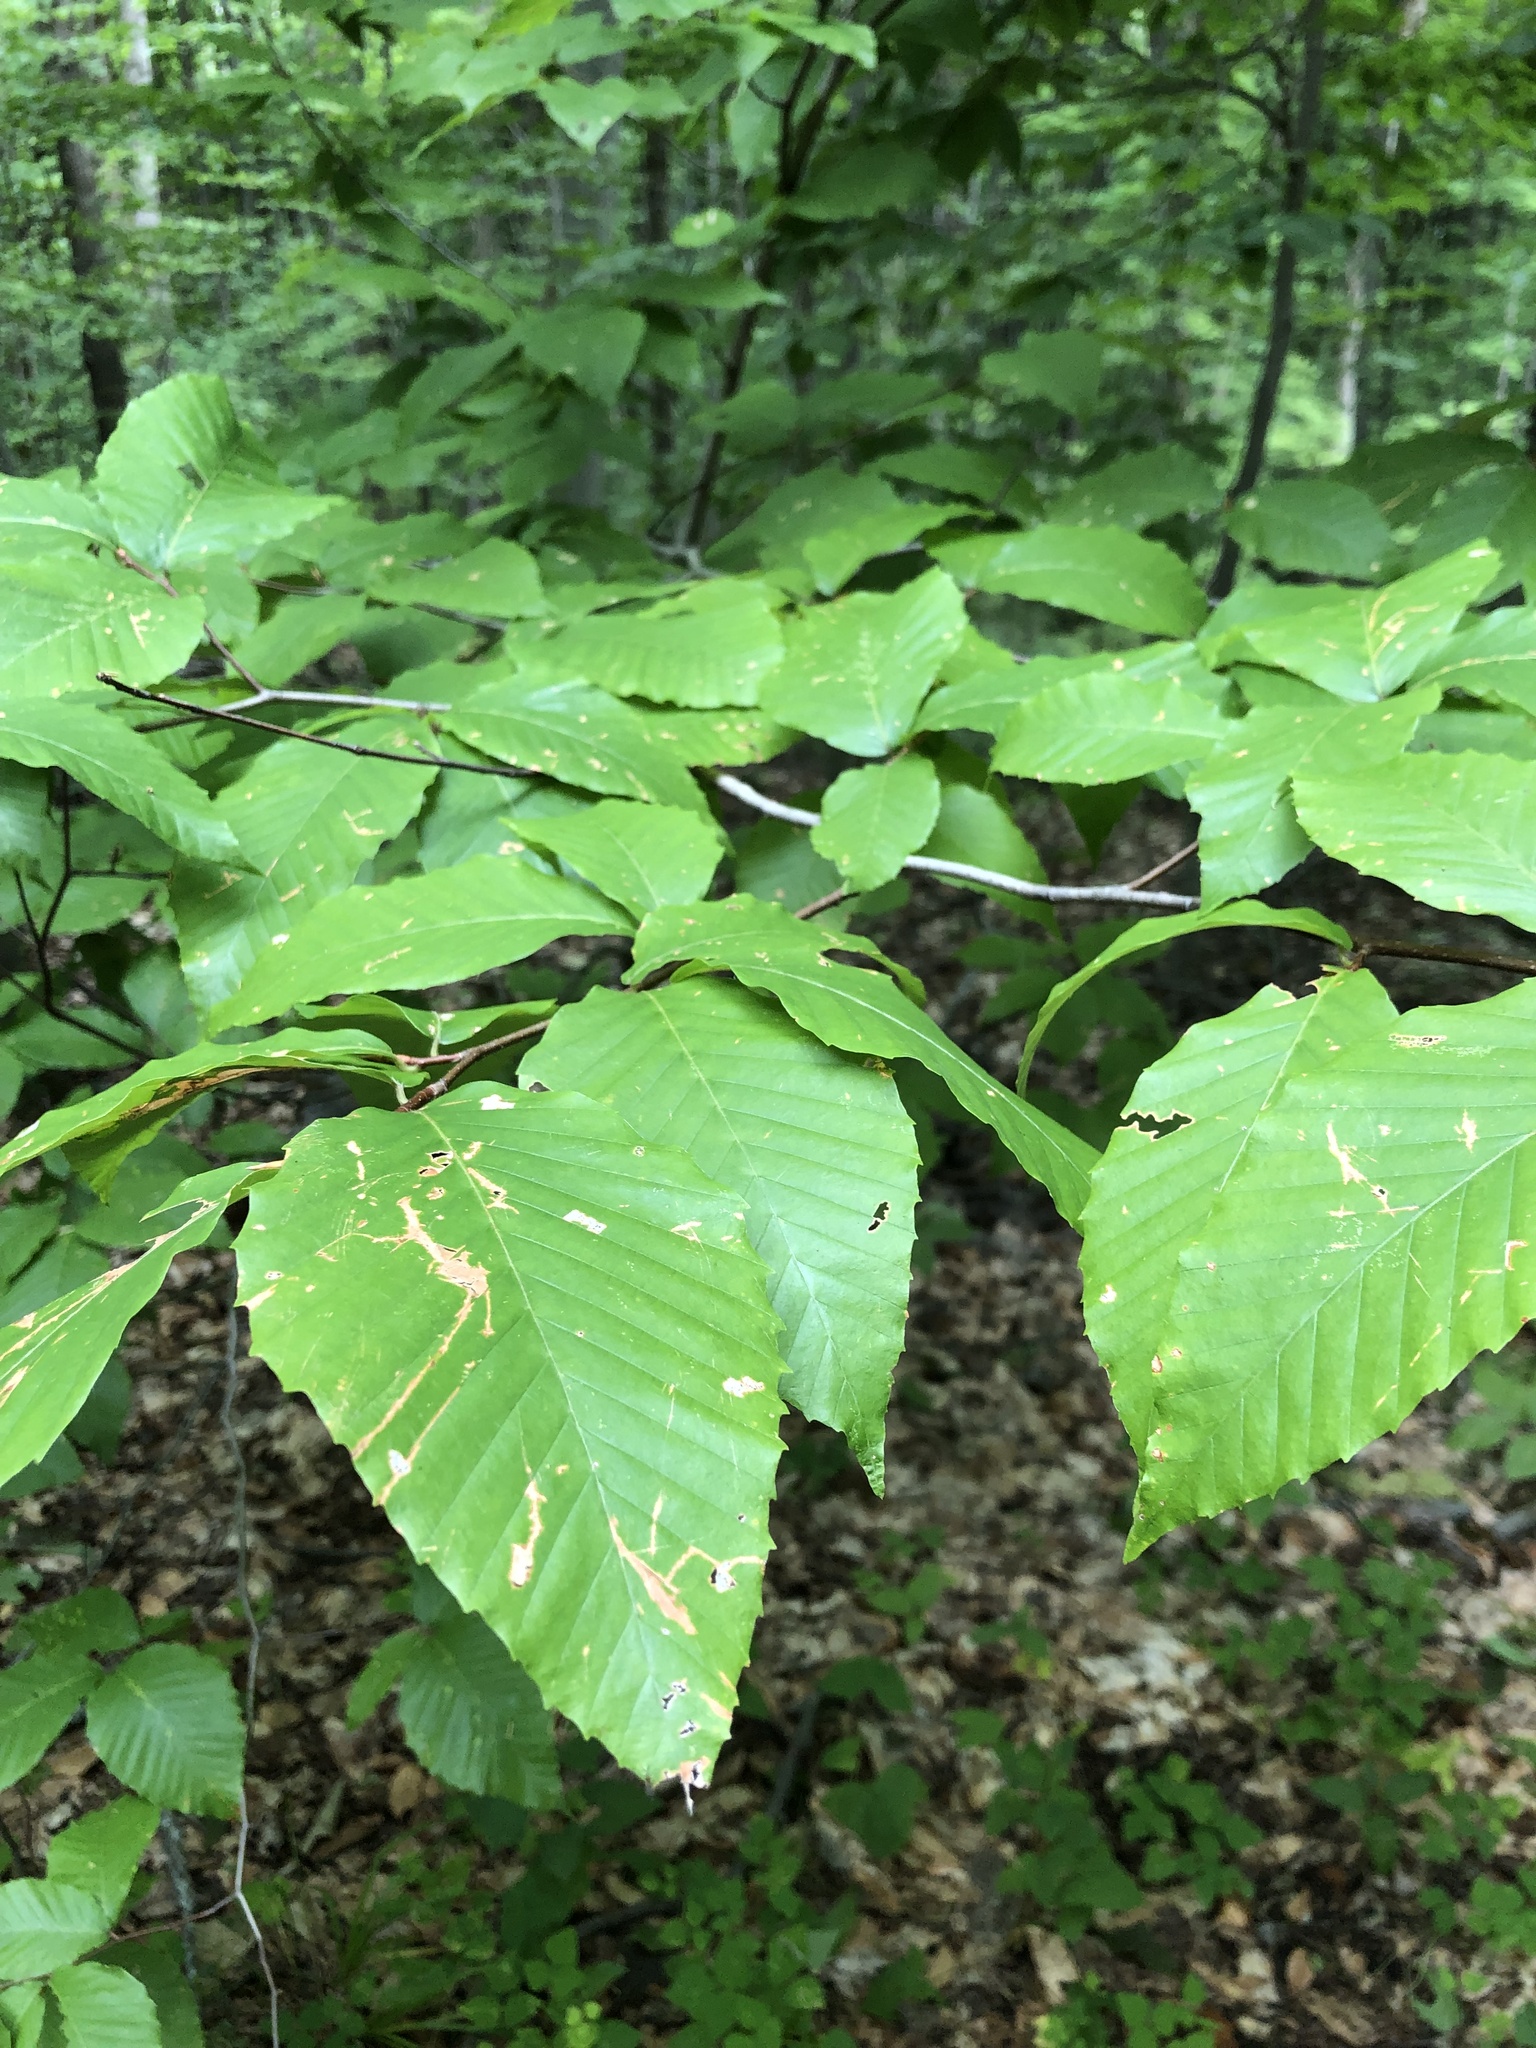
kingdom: Plantae
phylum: Tracheophyta
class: Magnoliopsida
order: Fagales
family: Fagaceae
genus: Fagus
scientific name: Fagus grandifolia
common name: American beech
